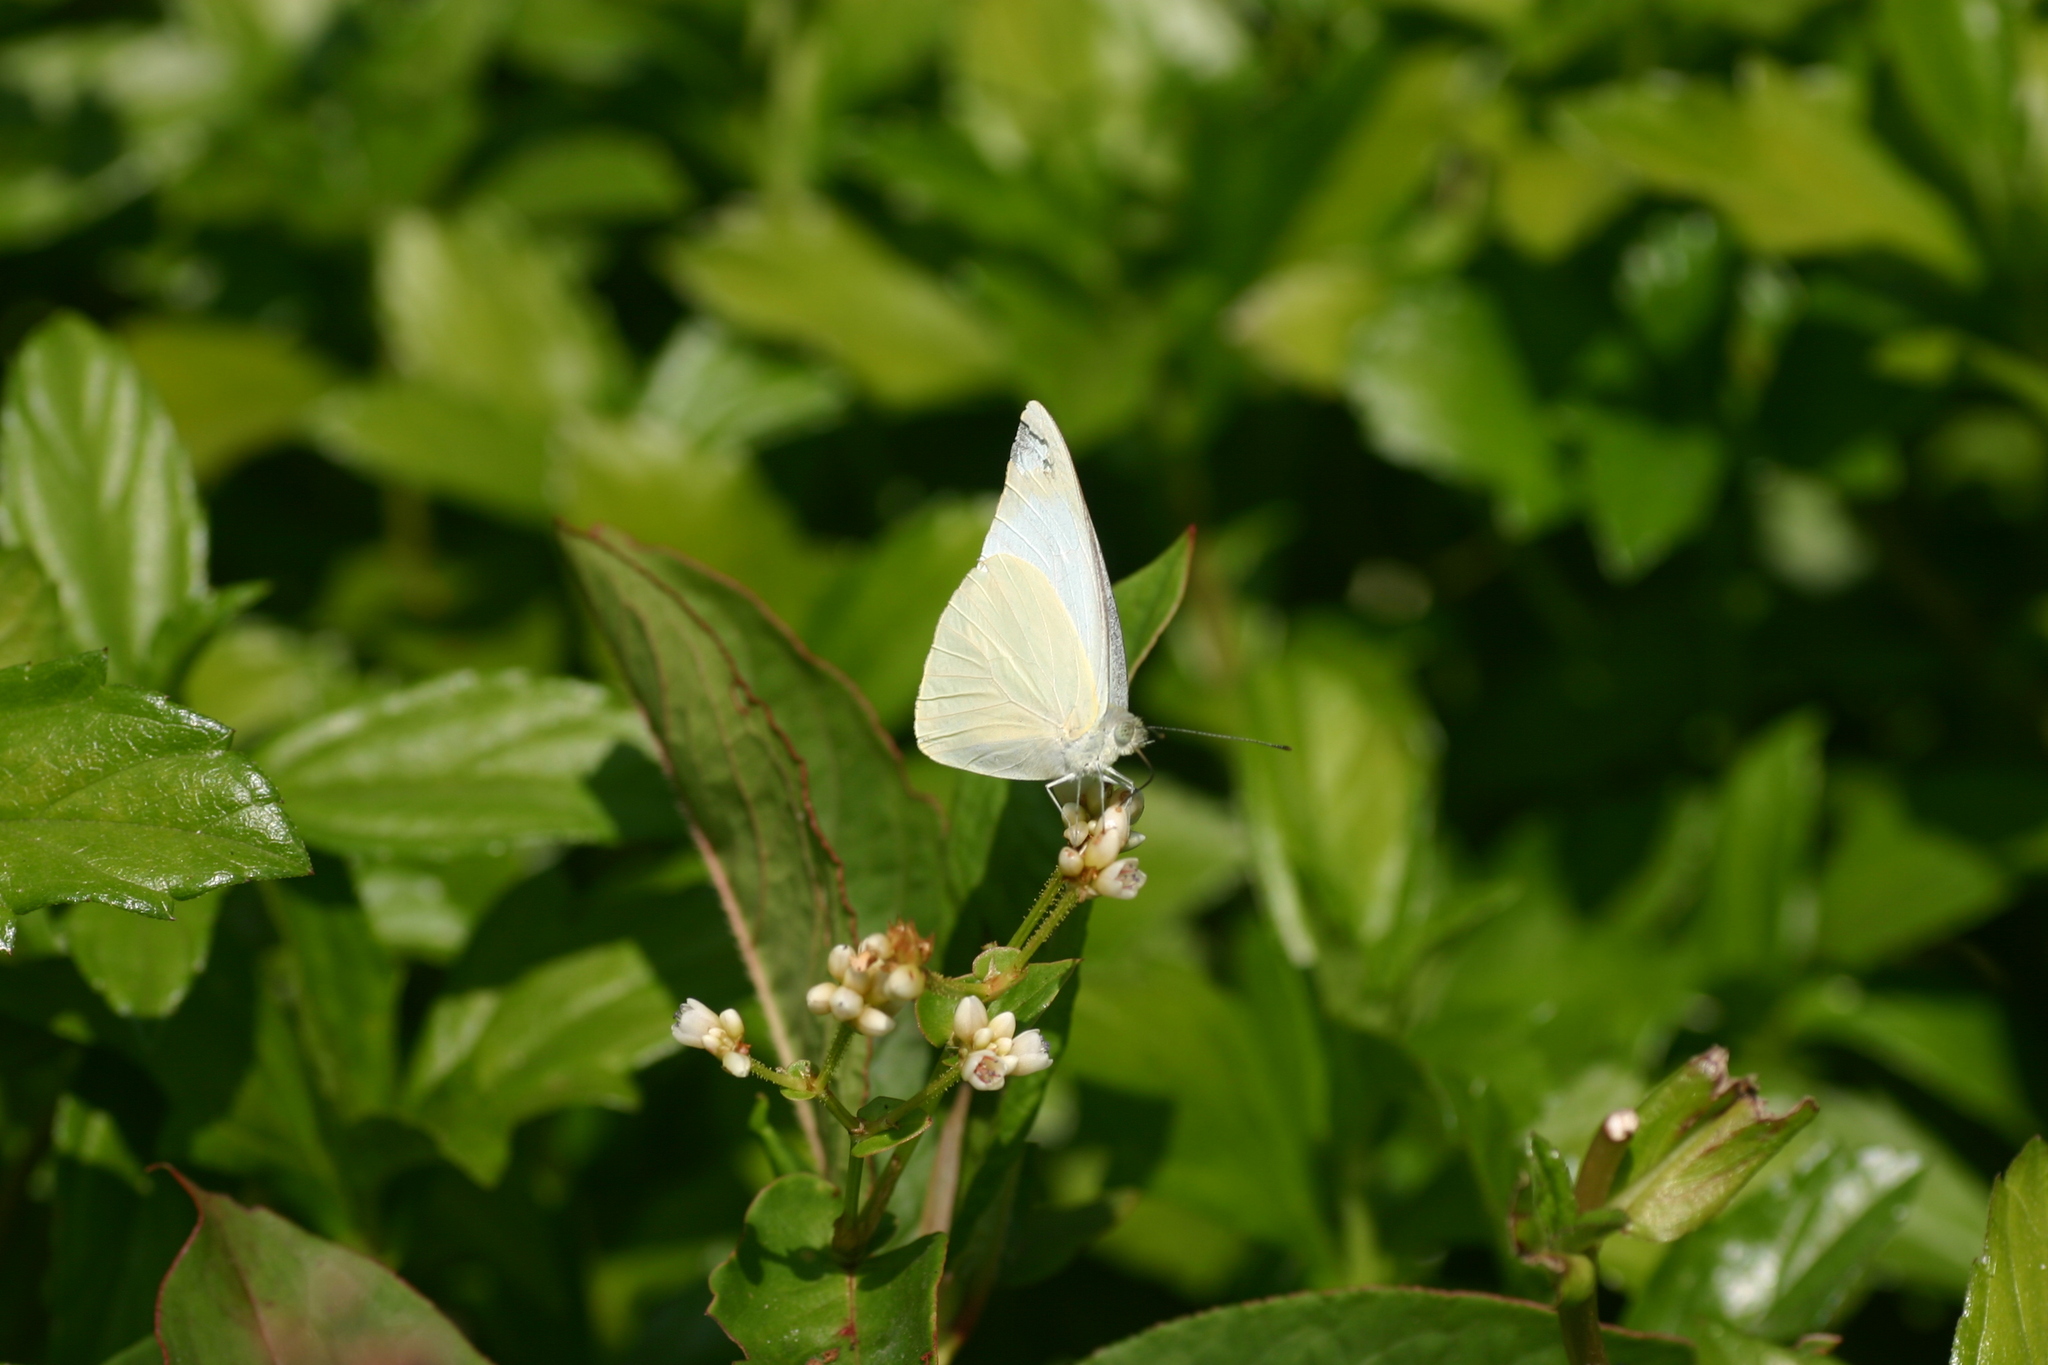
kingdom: Animalia
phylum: Arthropoda
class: Insecta
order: Lepidoptera
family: Pieridae
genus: Appias
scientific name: Appias albina
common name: Common albatross
